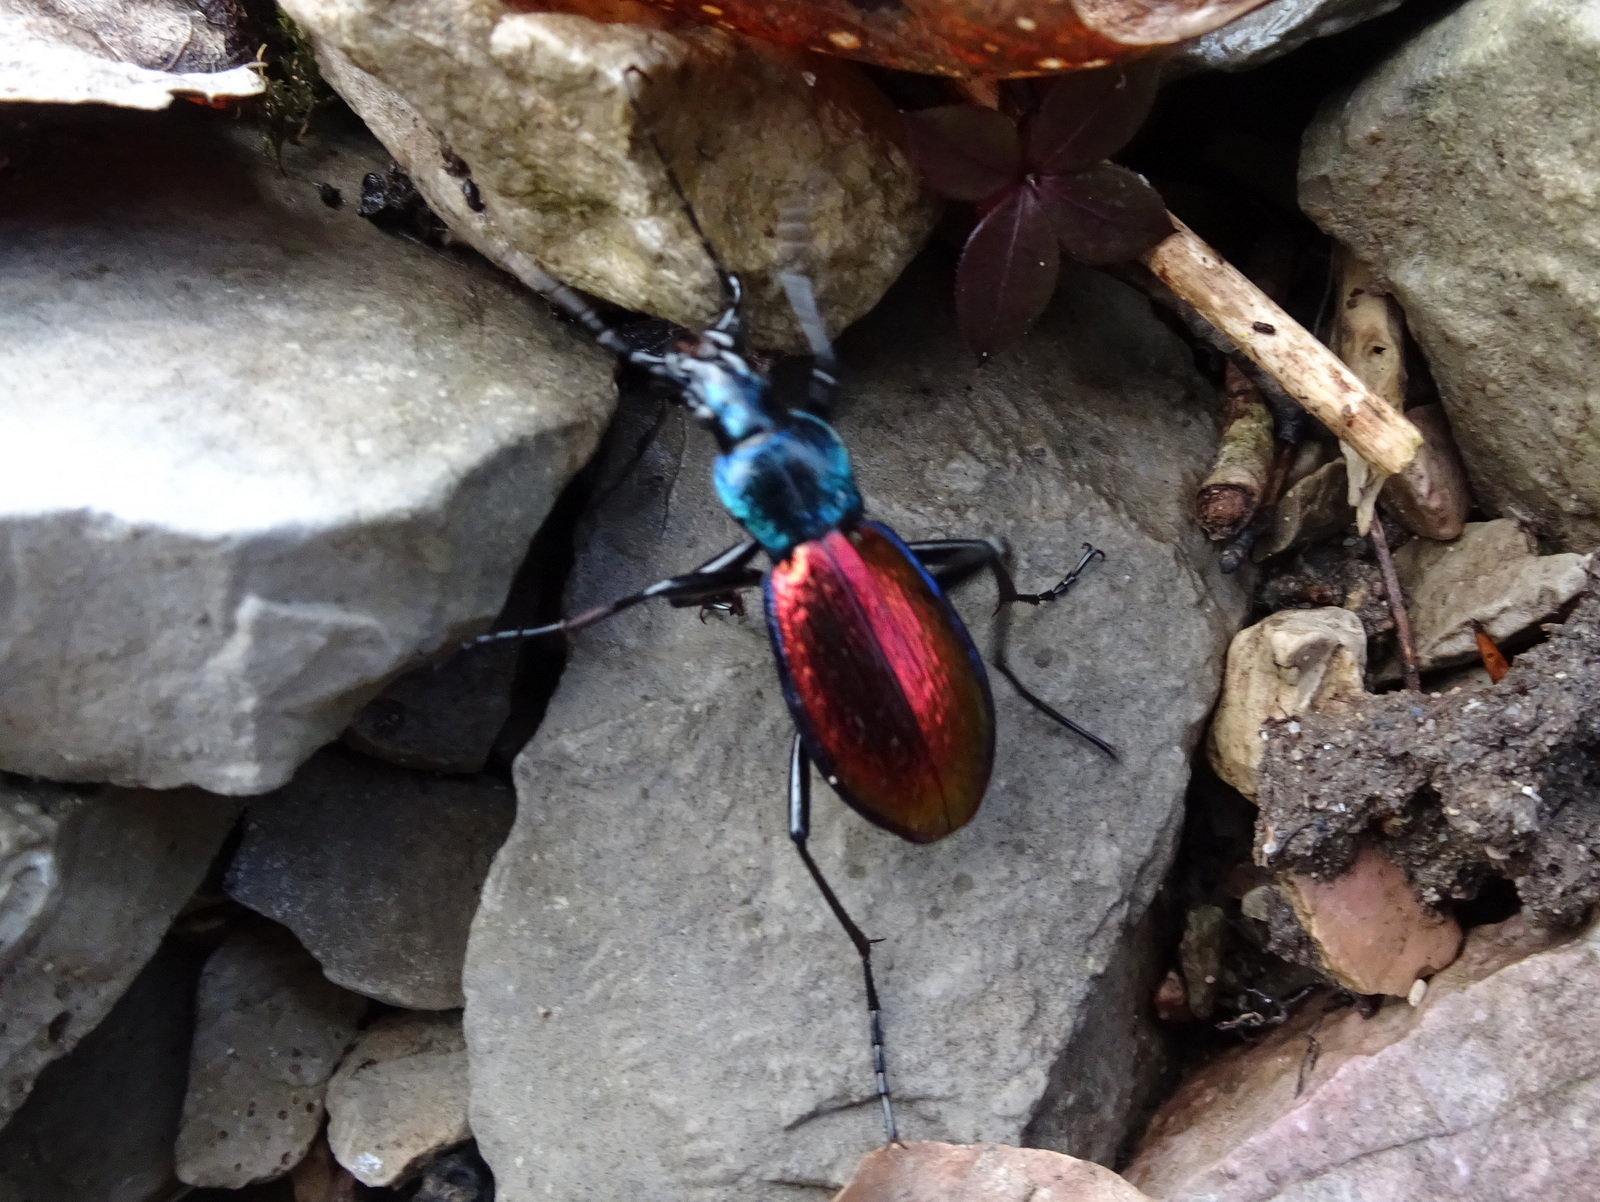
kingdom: Animalia
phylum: Arthropoda
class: Insecta
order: Coleoptera
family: Carabidae
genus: Carabus
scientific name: Carabus hispanus
